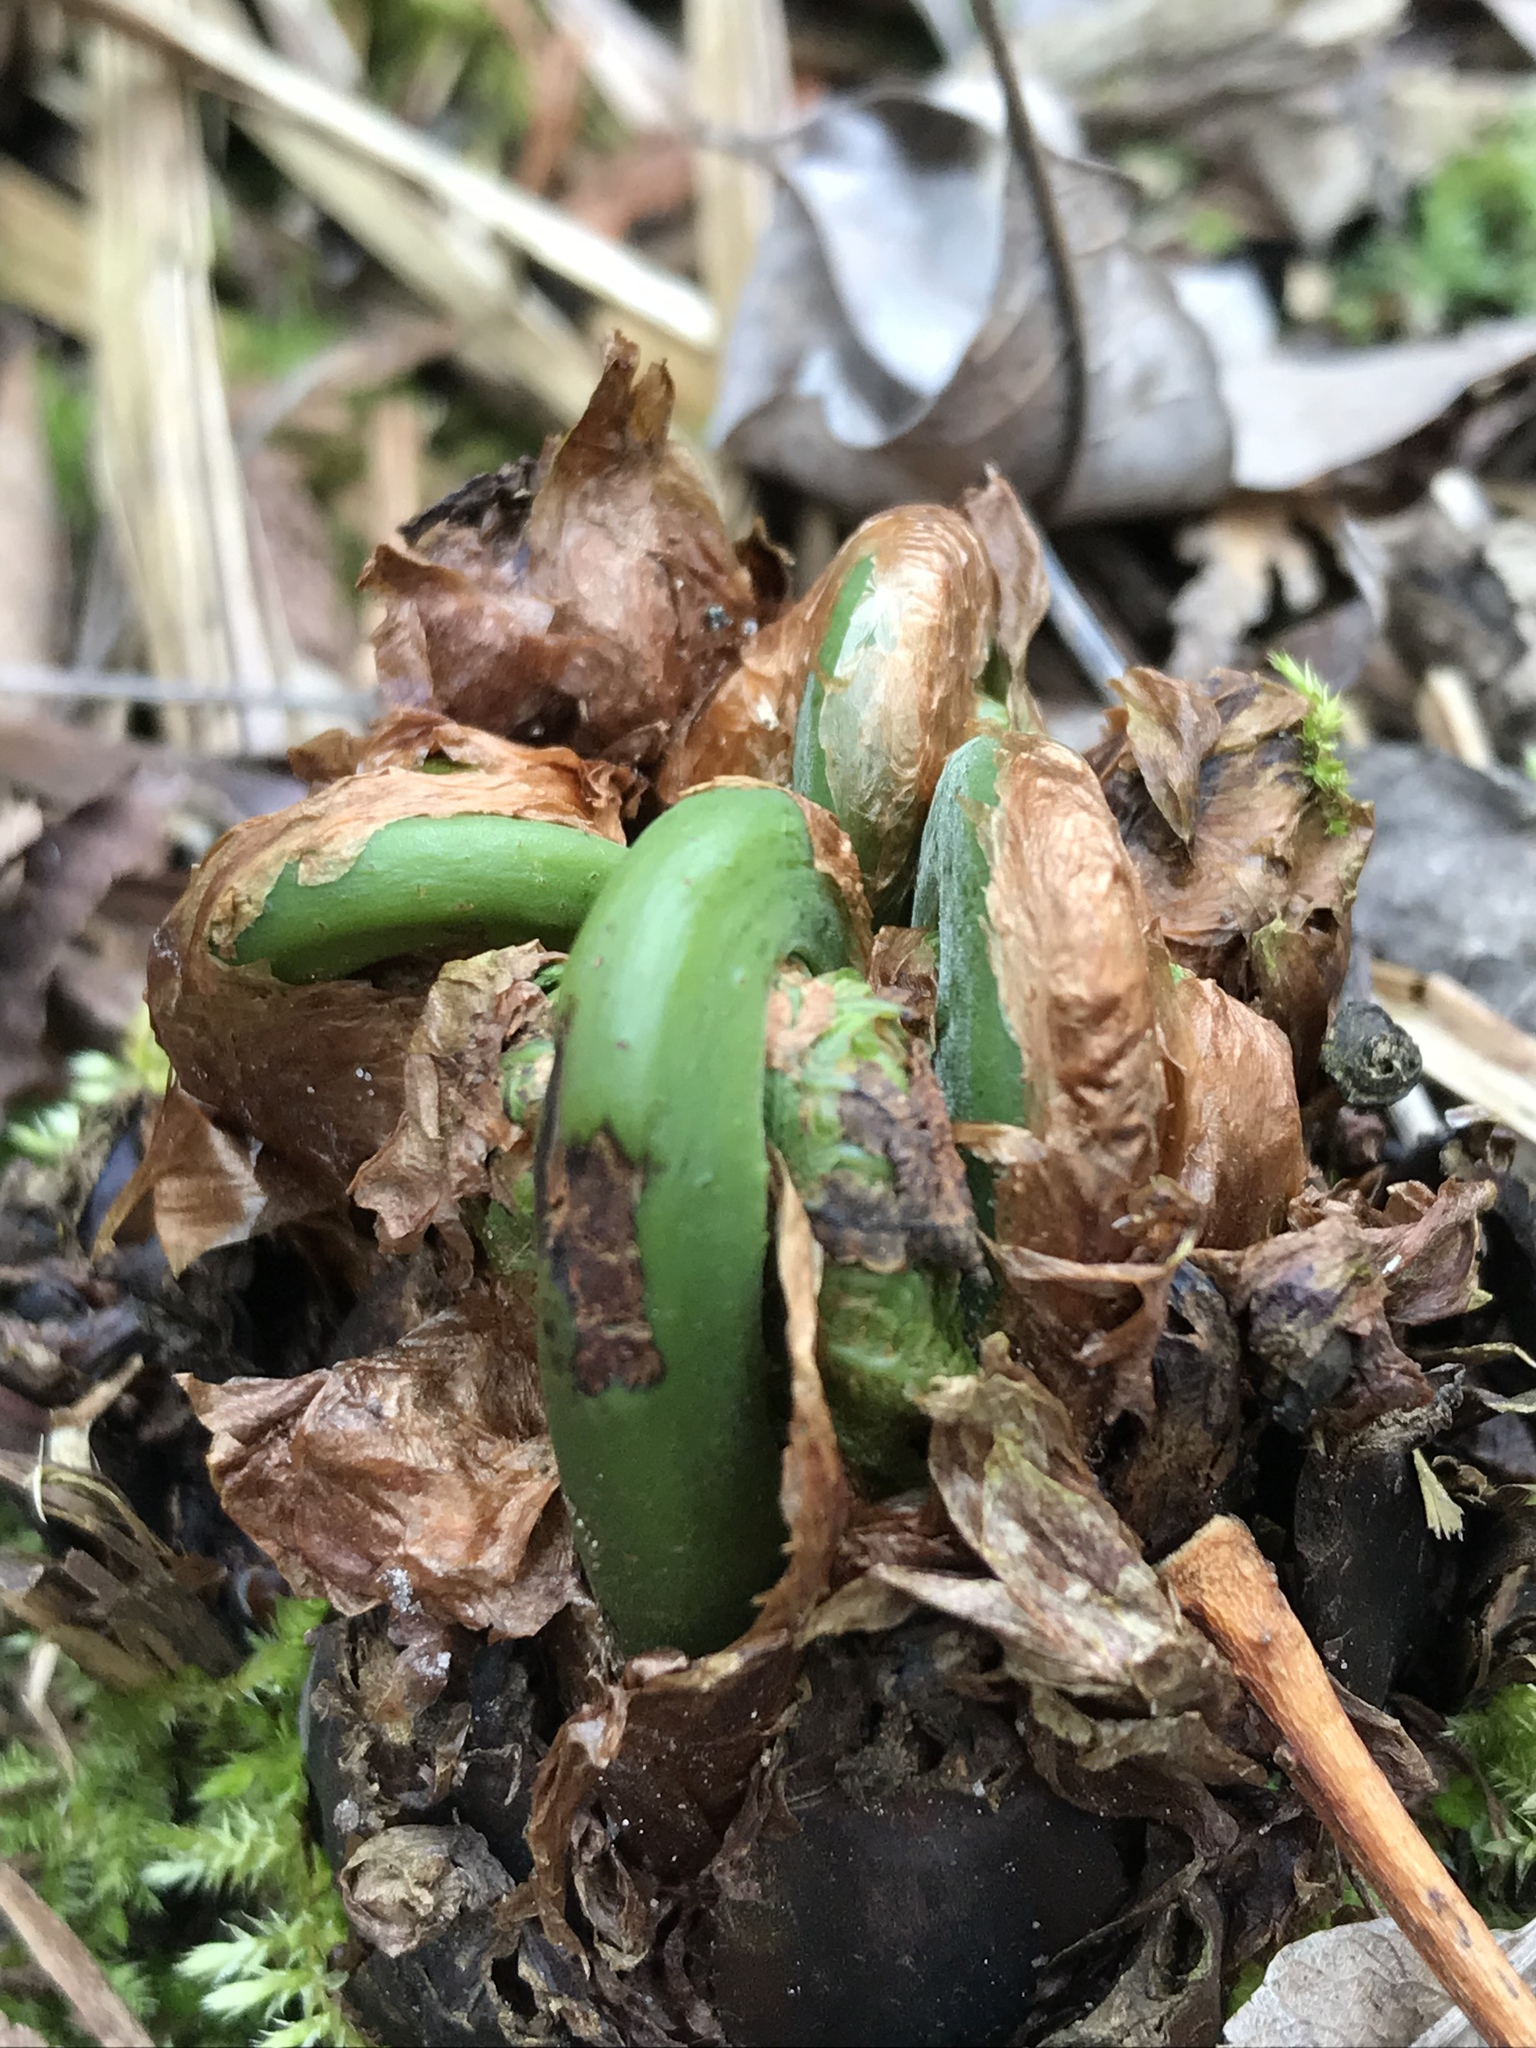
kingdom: Plantae
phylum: Tracheophyta
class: Polypodiopsida
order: Polypodiales
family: Onocleaceae
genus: Matteuccia
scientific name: Matteuccia struthiopteris
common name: Ostrich fern
